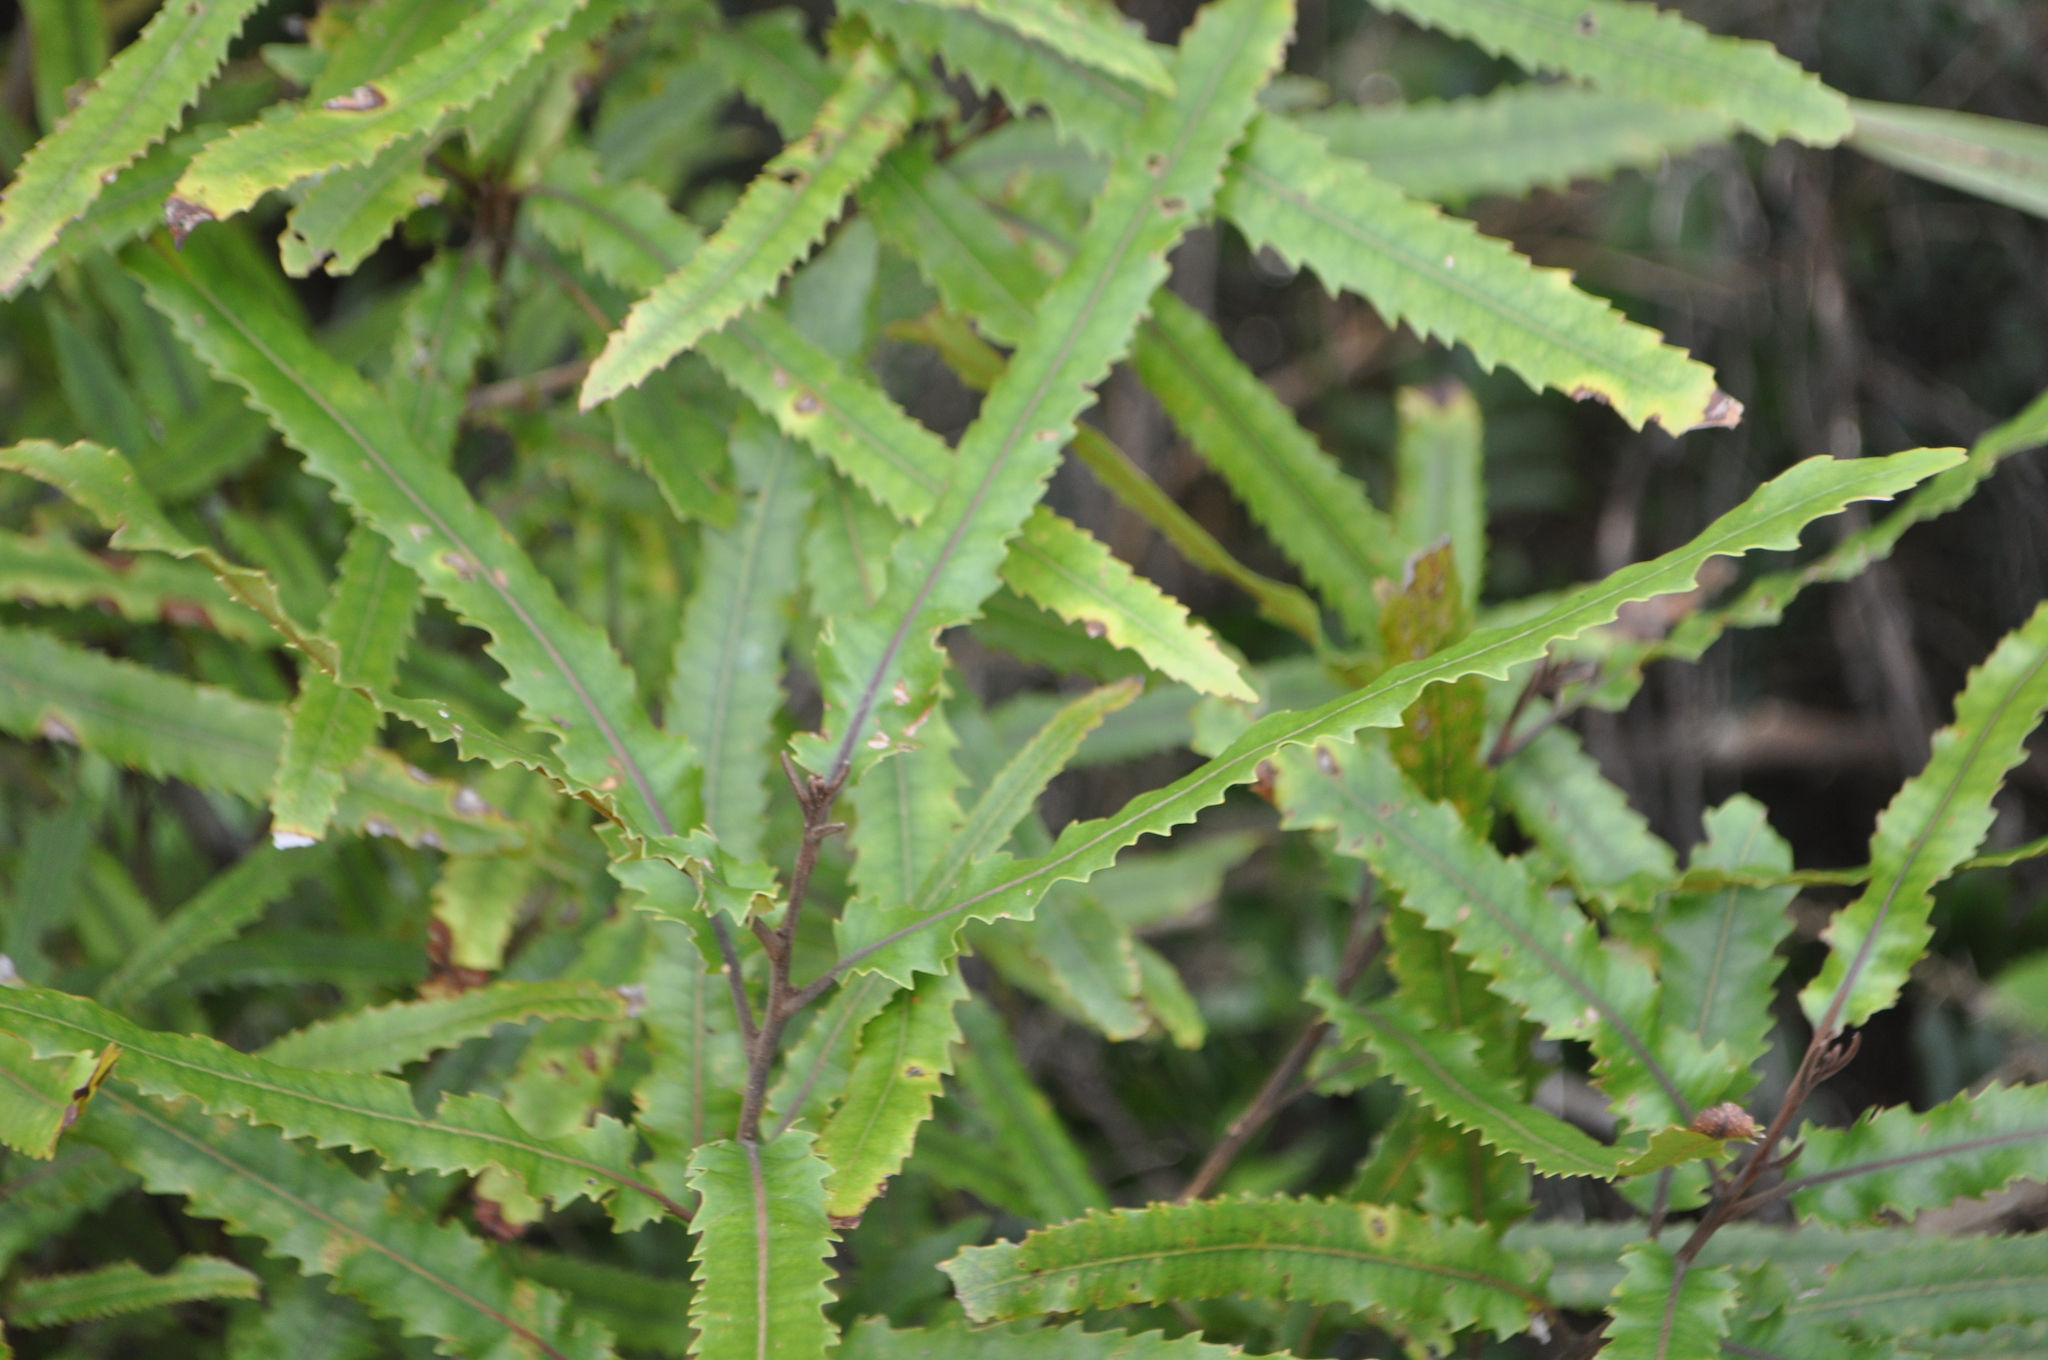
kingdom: Plantae
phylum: Tracheophyta
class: Magnoliopsida
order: Proteales
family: Proteaceae
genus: Knightia
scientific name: Knightia excelsa
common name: New zealand-honeysuckle
